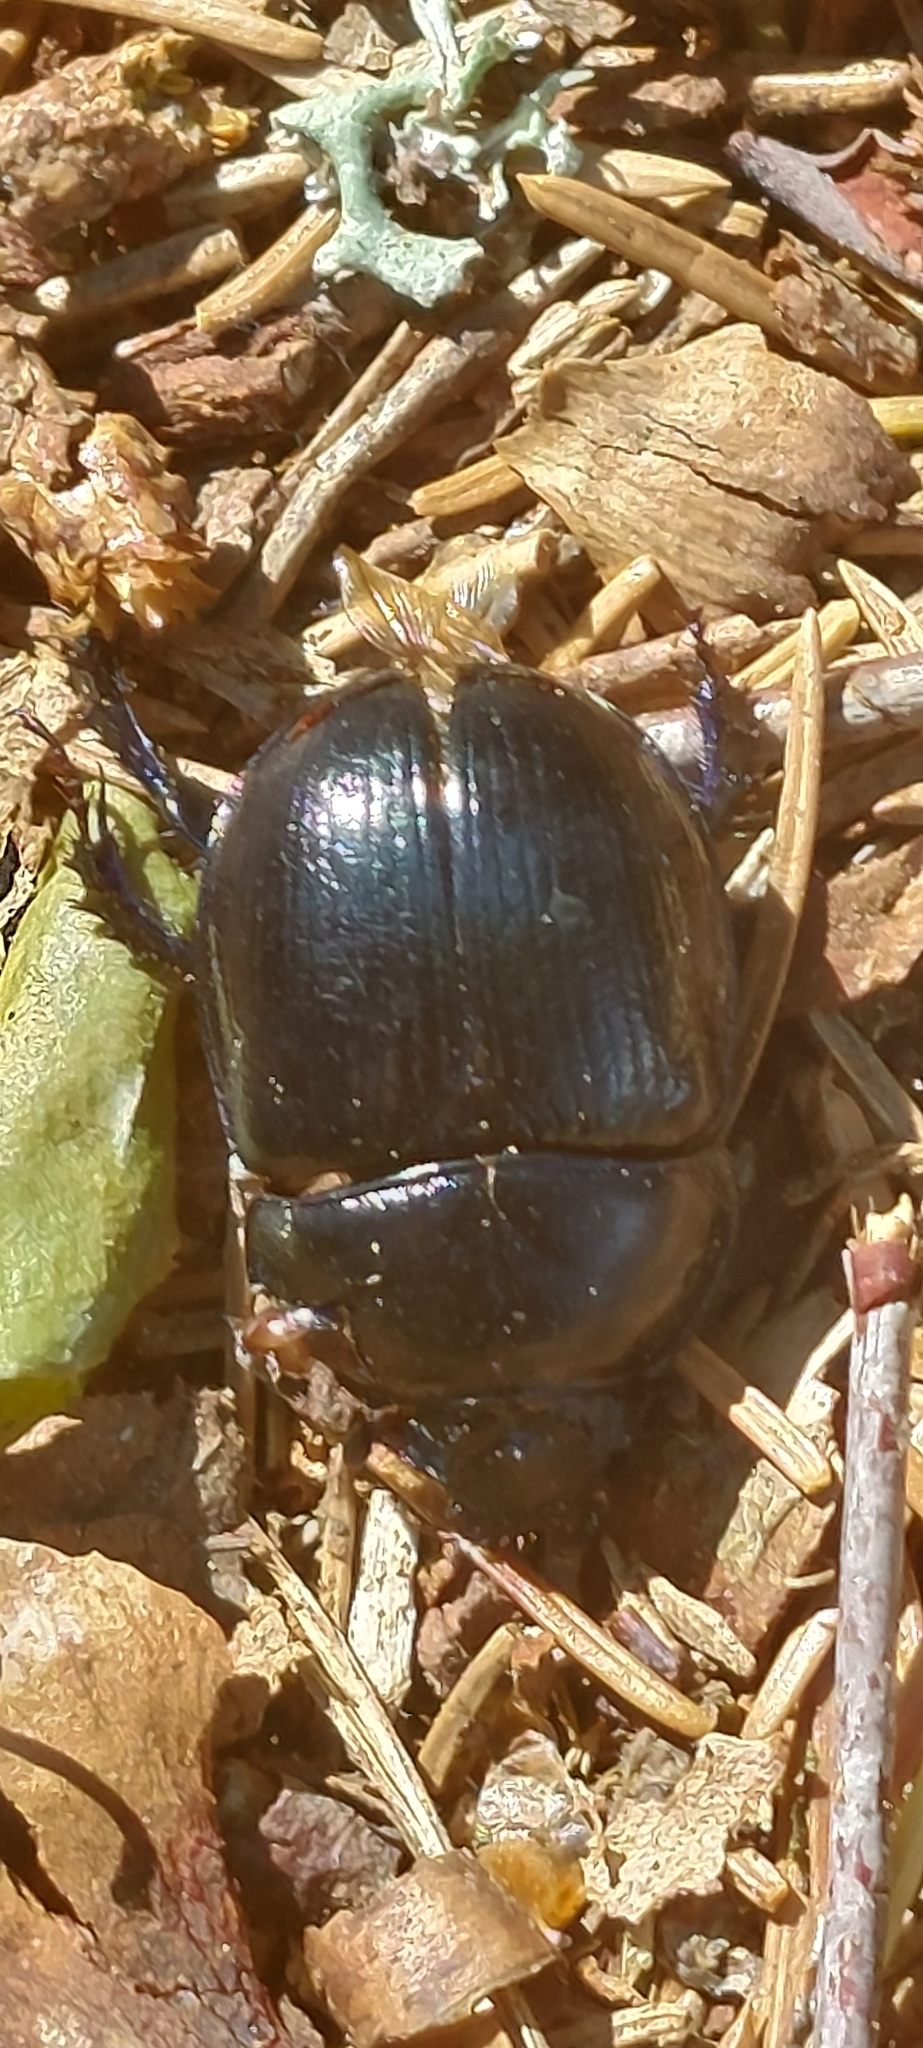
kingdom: Animalia
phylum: Arthropoda
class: Insecta
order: Coleoptera
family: Geotrupidae
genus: Anoplotrupes
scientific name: Anoplotrupes stercorosus
